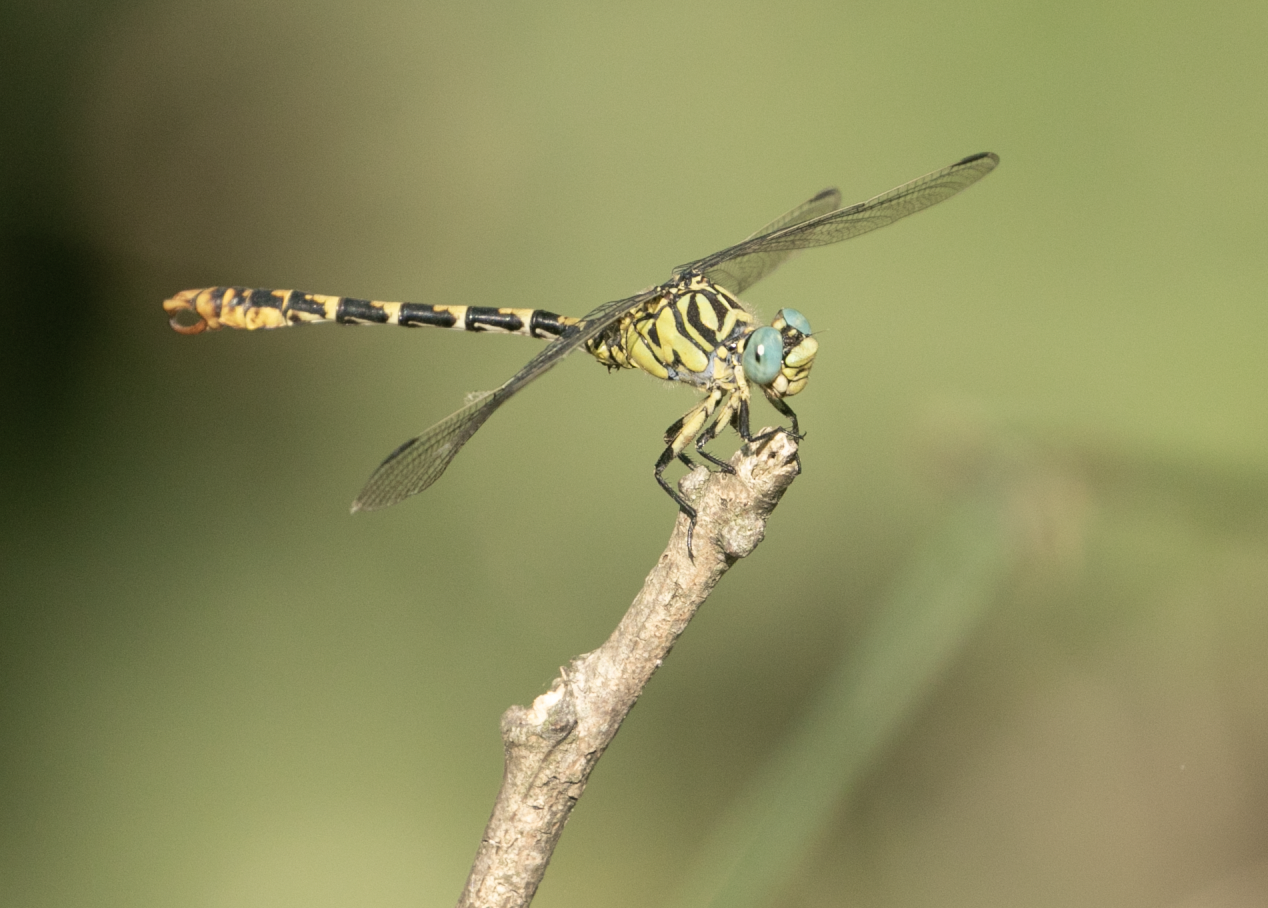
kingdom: Animalia
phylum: Arthropoda
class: Insecta
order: Odonata
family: Gomphidae
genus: Onychogomphus
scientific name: Onychogomphus forcipatus
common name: Small pincertail
